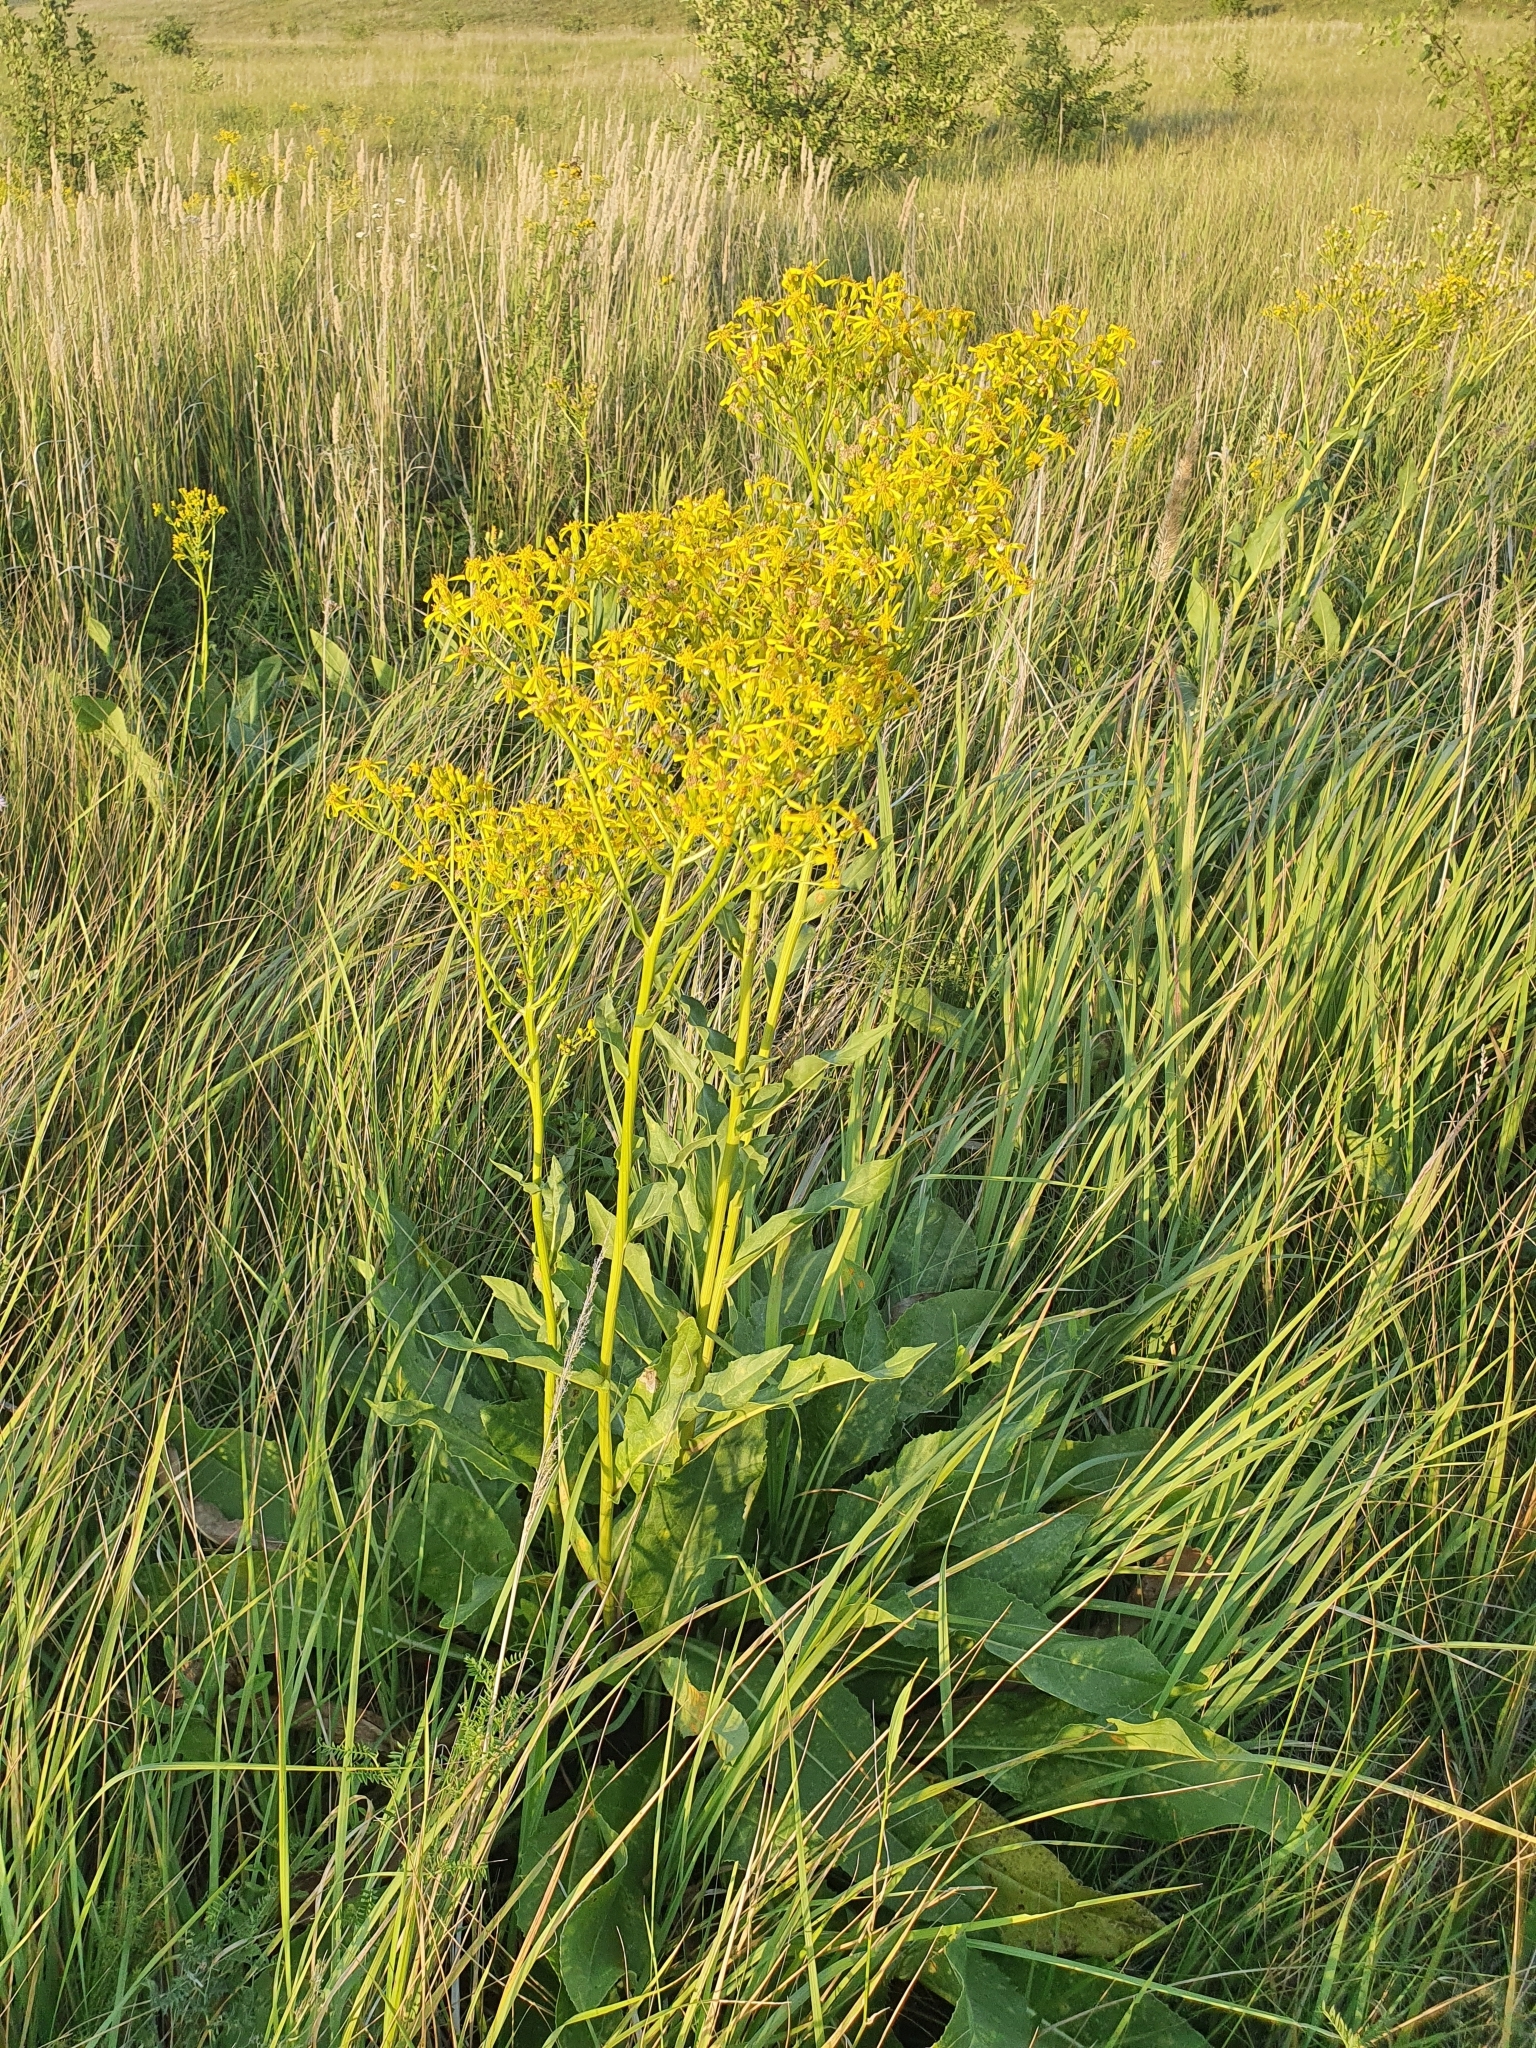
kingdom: Plantae
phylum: Tracheophyta
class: Magnoliopsida
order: Asterales
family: Asteraceae
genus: Senecio
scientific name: Senecio doria
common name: Golden ragwort
